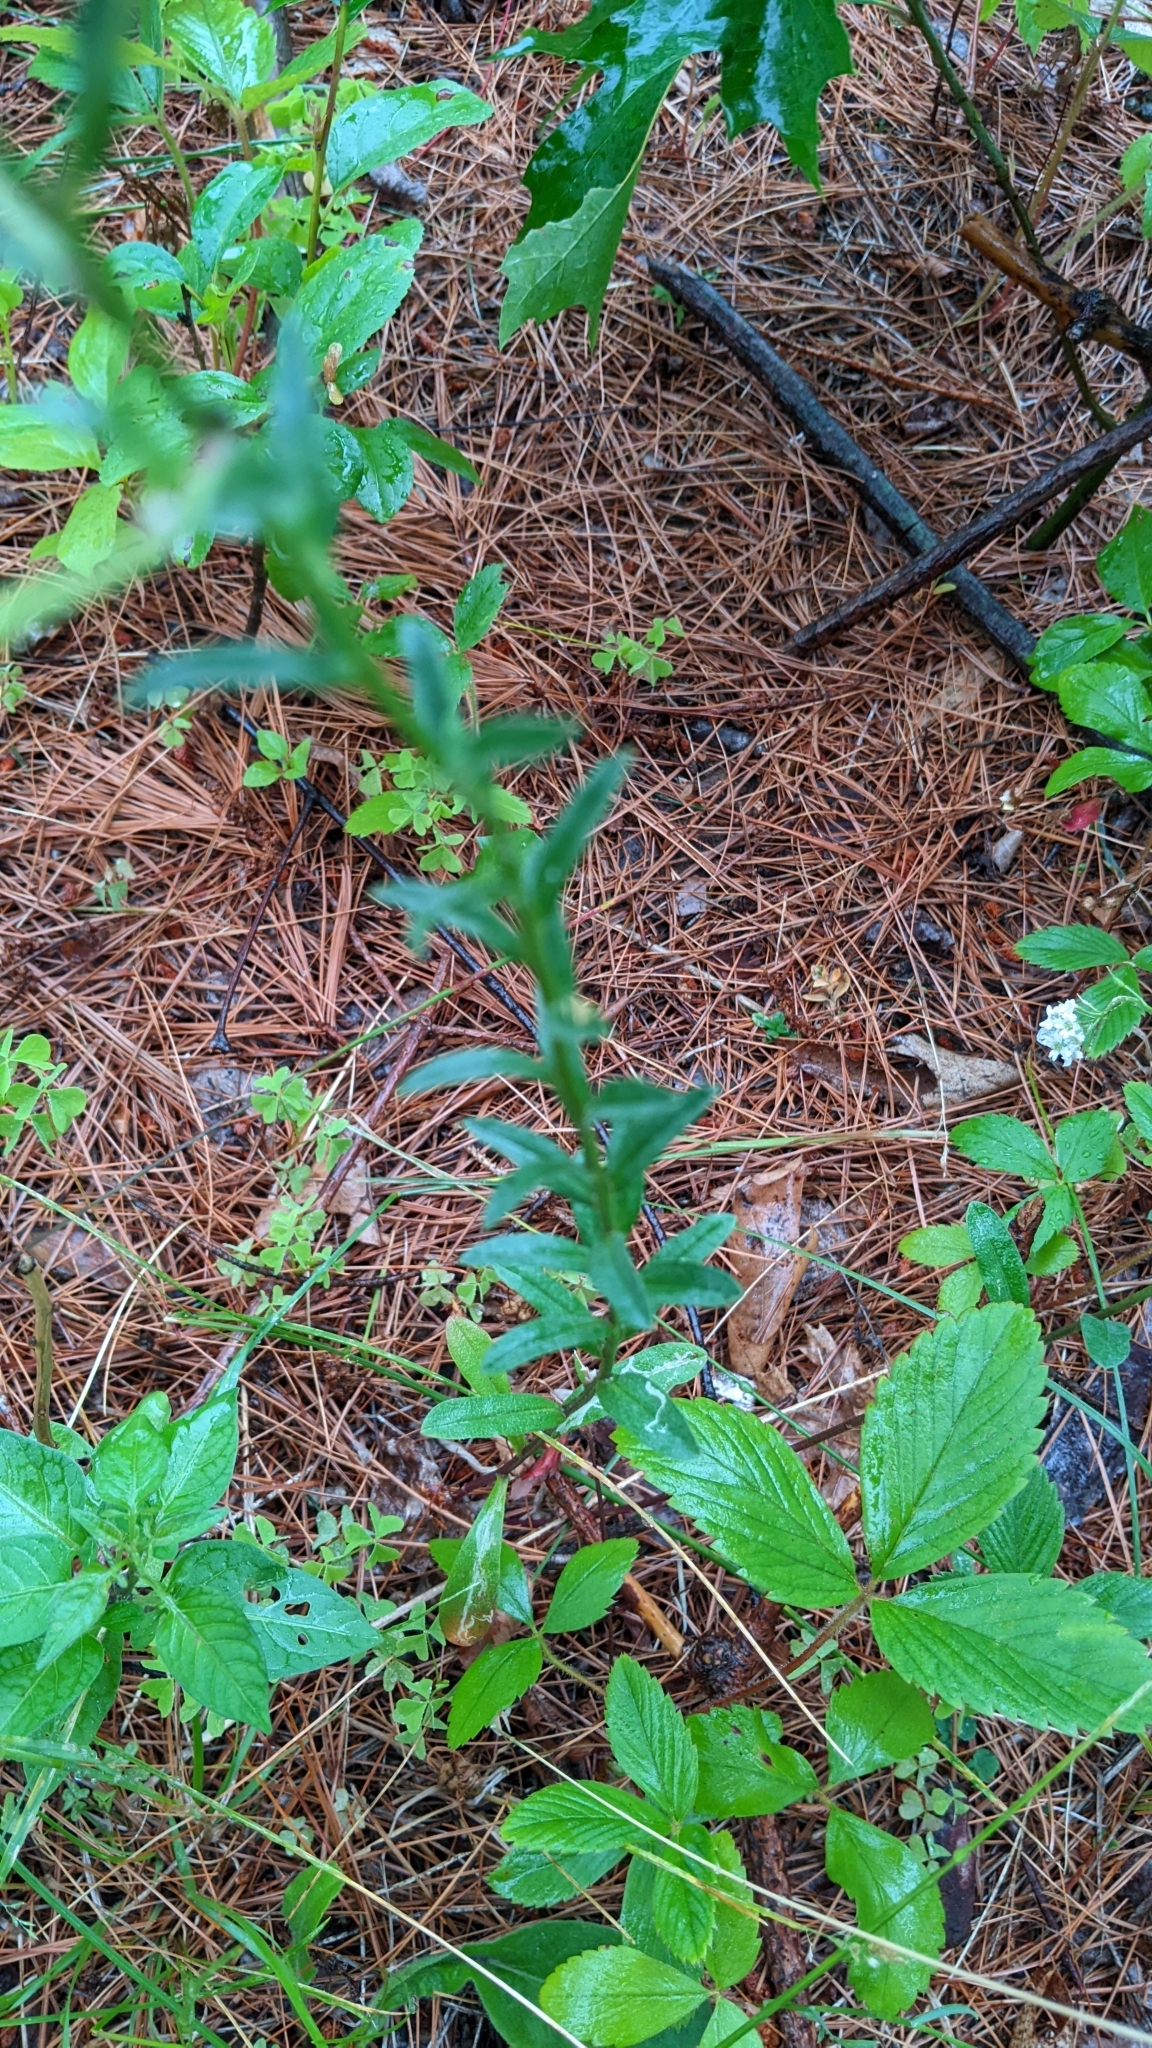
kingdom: Plantae
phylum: Tracheophyta
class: Magnoliopsida
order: Brassicales
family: Brassicaceae
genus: Berteroa
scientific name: Berteroa incana
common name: Hoary alison
